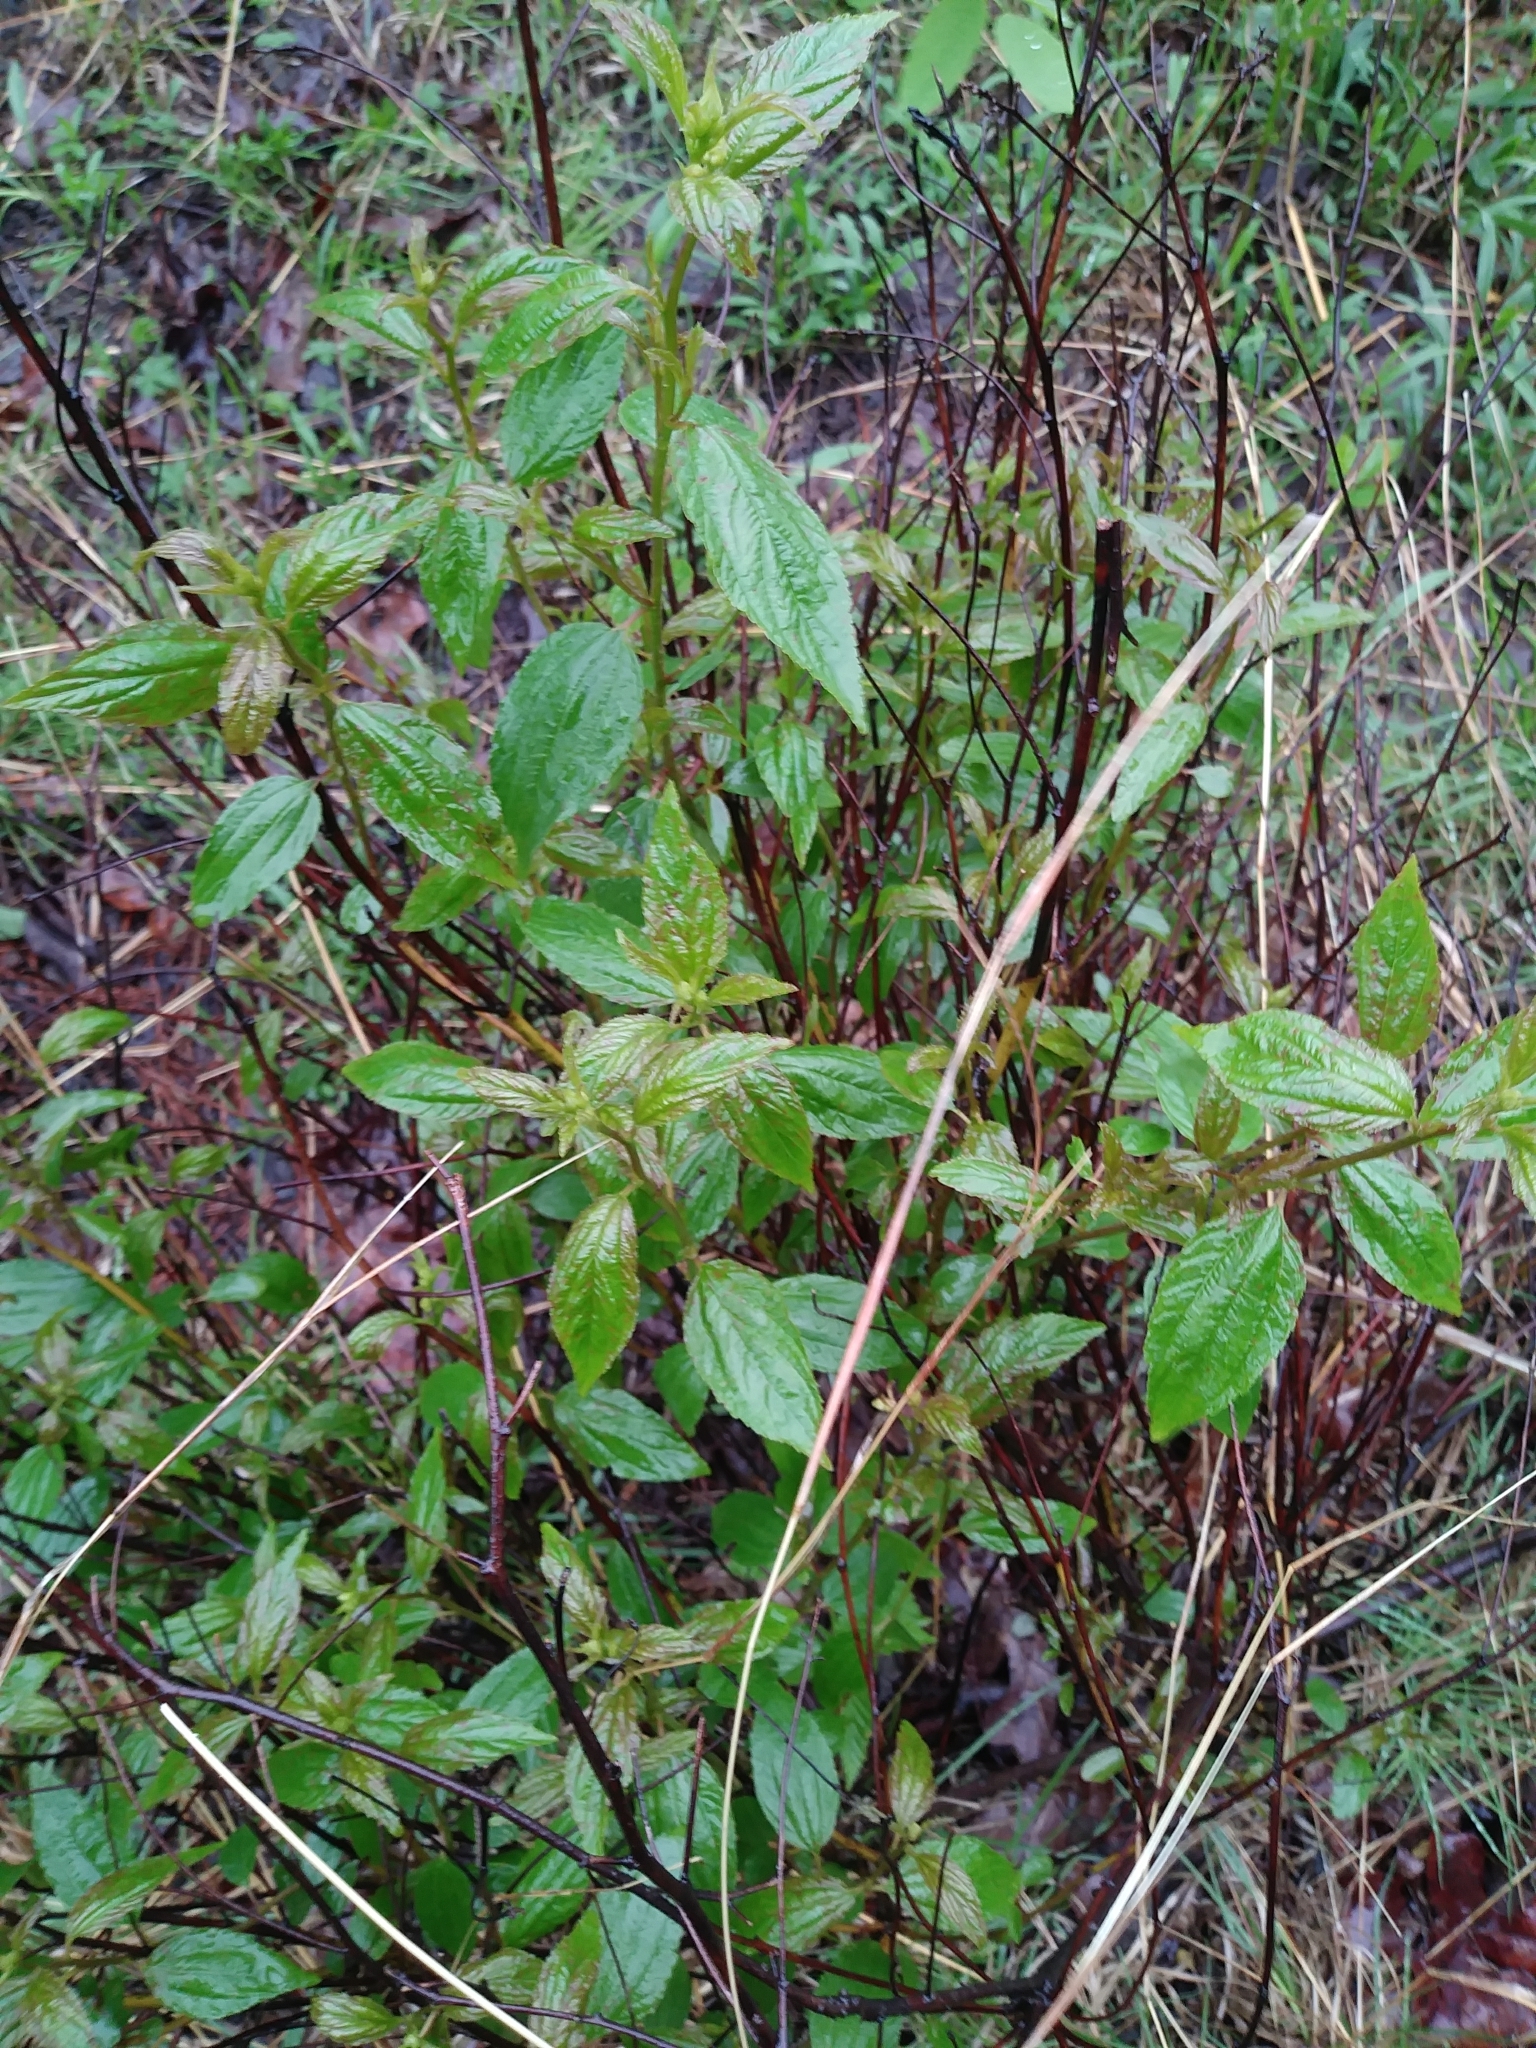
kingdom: Plantae
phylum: Tracheophyta
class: Magnoliopsida
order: Rosales
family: Rhamnaceae
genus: Ceanothus
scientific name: Ceanothus americanus
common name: Redroot
